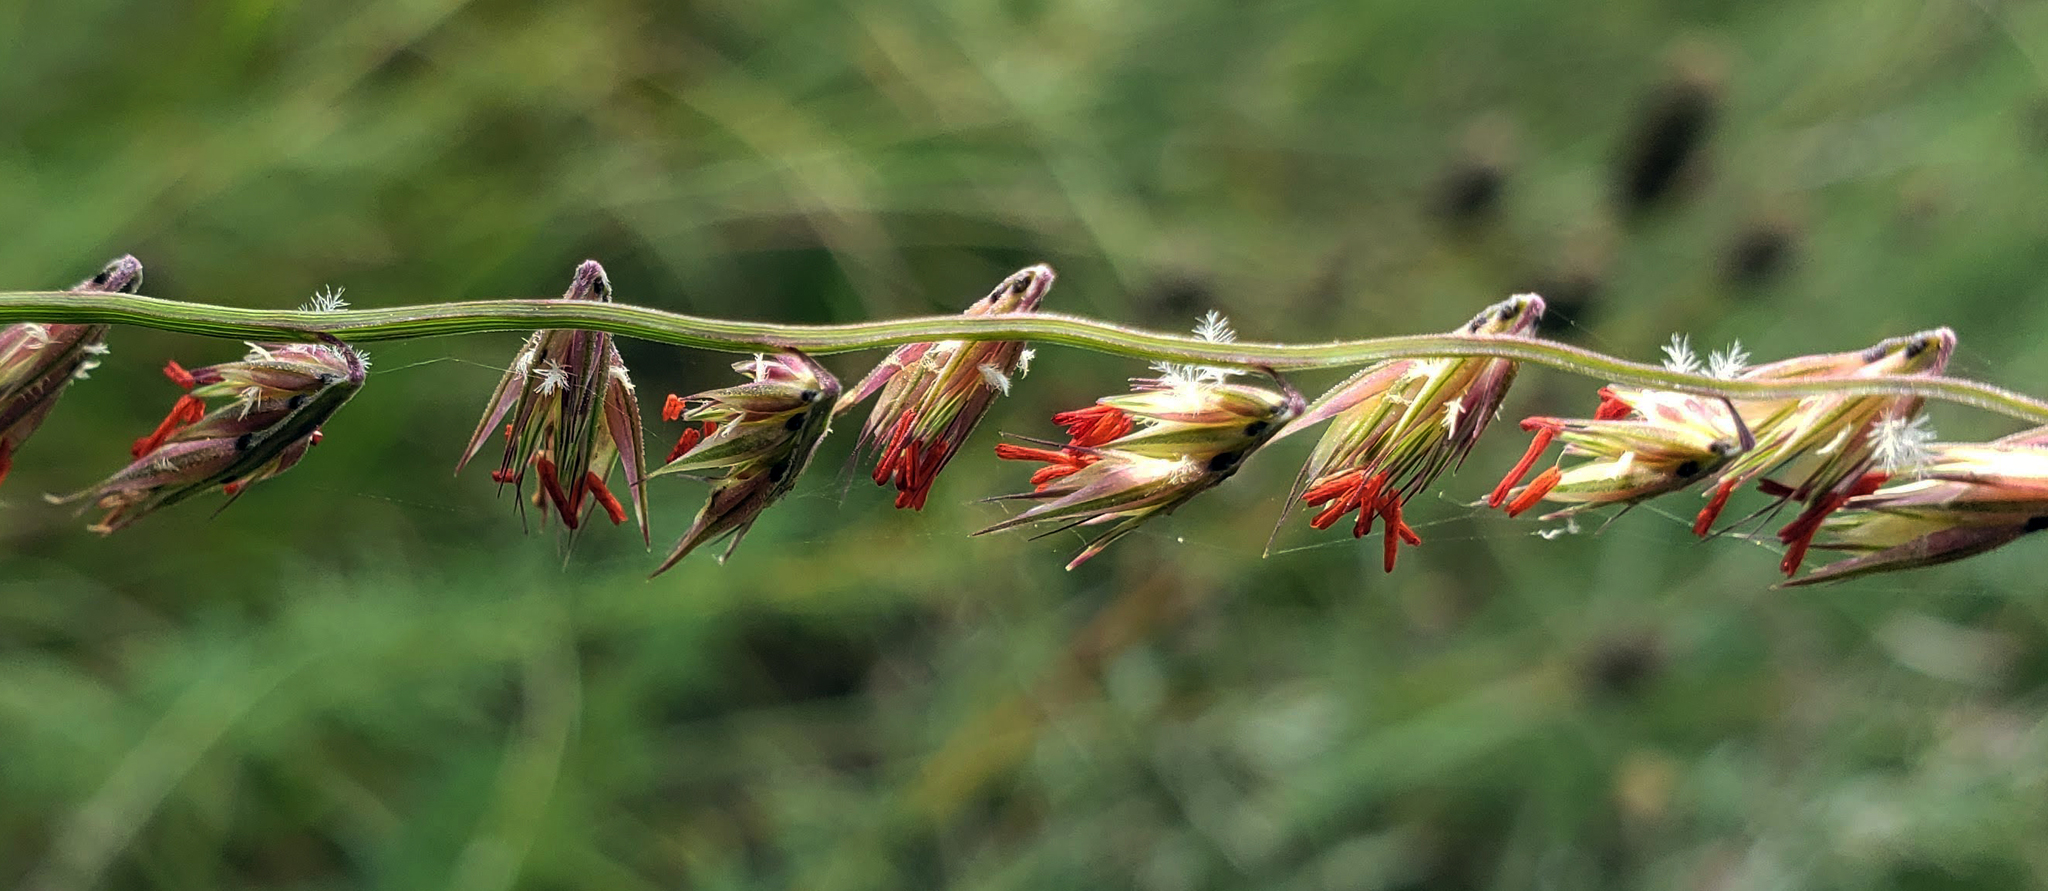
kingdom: Plantae
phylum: Tracheophyta
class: Liliopsida
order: Poales
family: Poaceae
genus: Bouteloua
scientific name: Bouteloua curtipendula
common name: Side-oats grama
